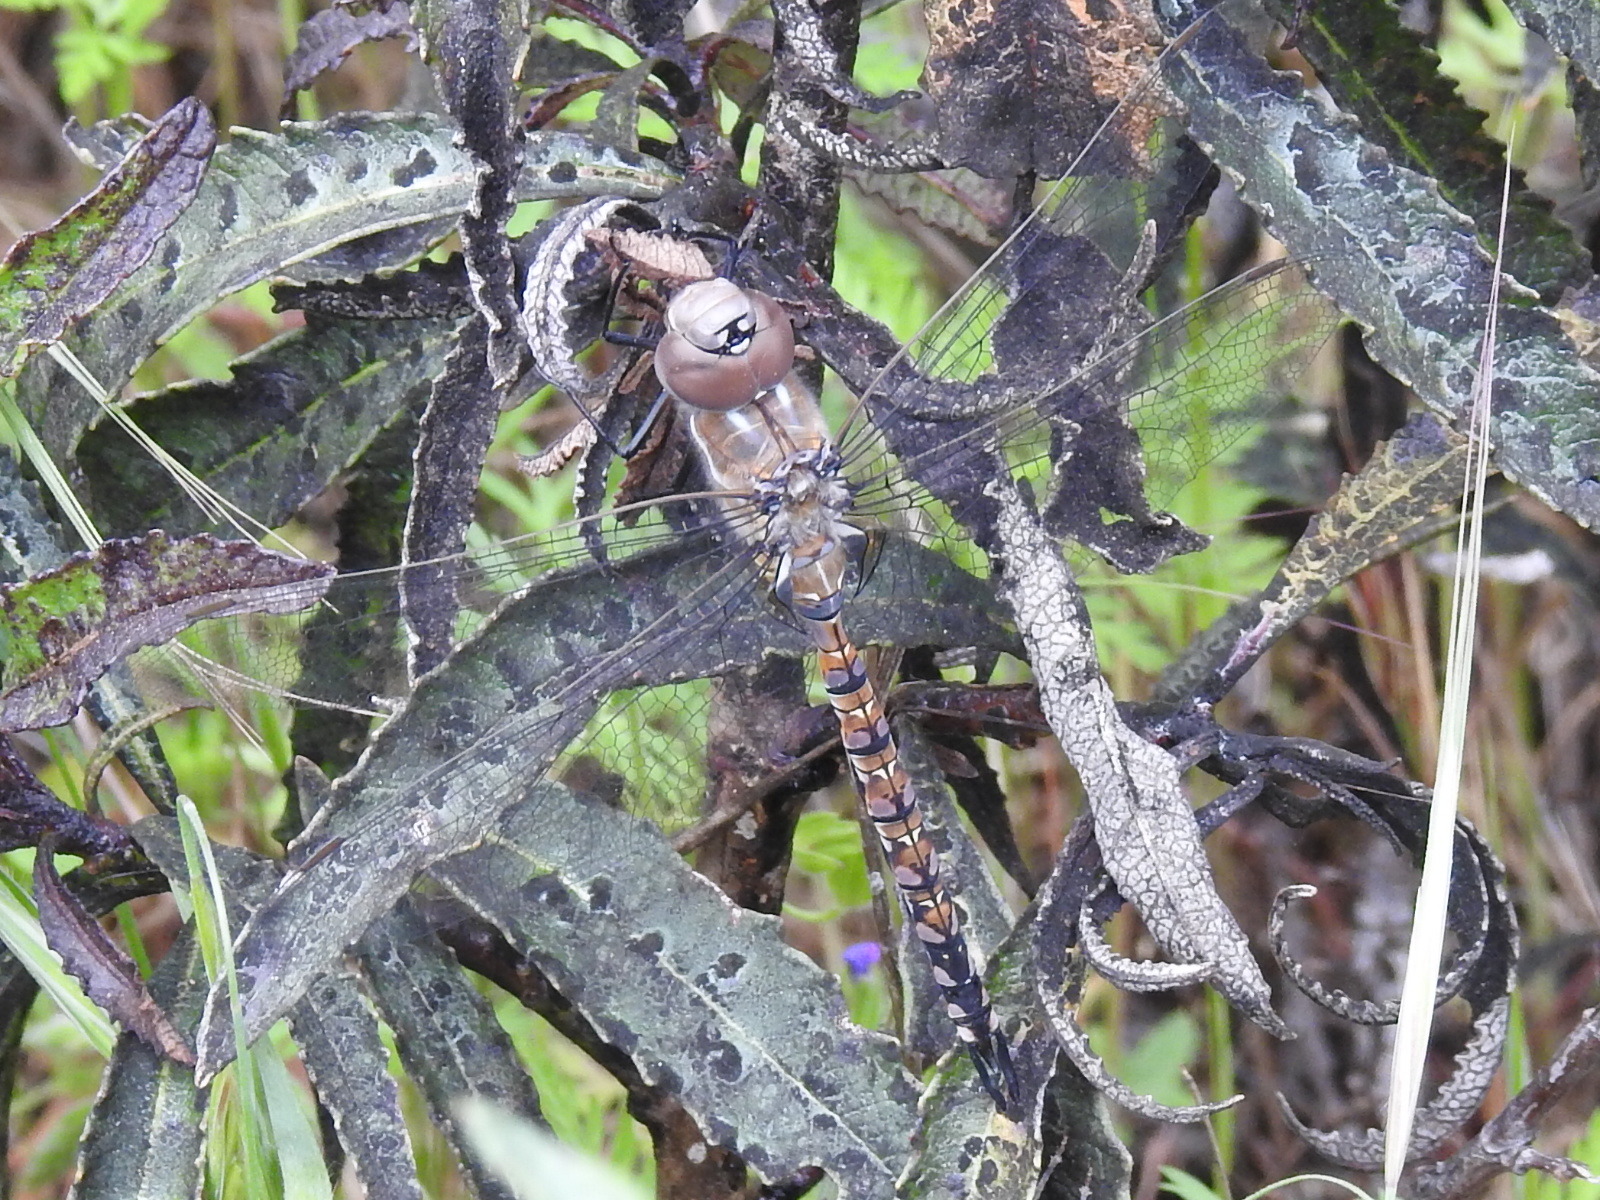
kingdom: Animalia
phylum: Arthropoda
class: Insecta
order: Odonata
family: Aeshnidae
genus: Rhionaeschna
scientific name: Rhionaeschna multicolor
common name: Blue-eyed darner
